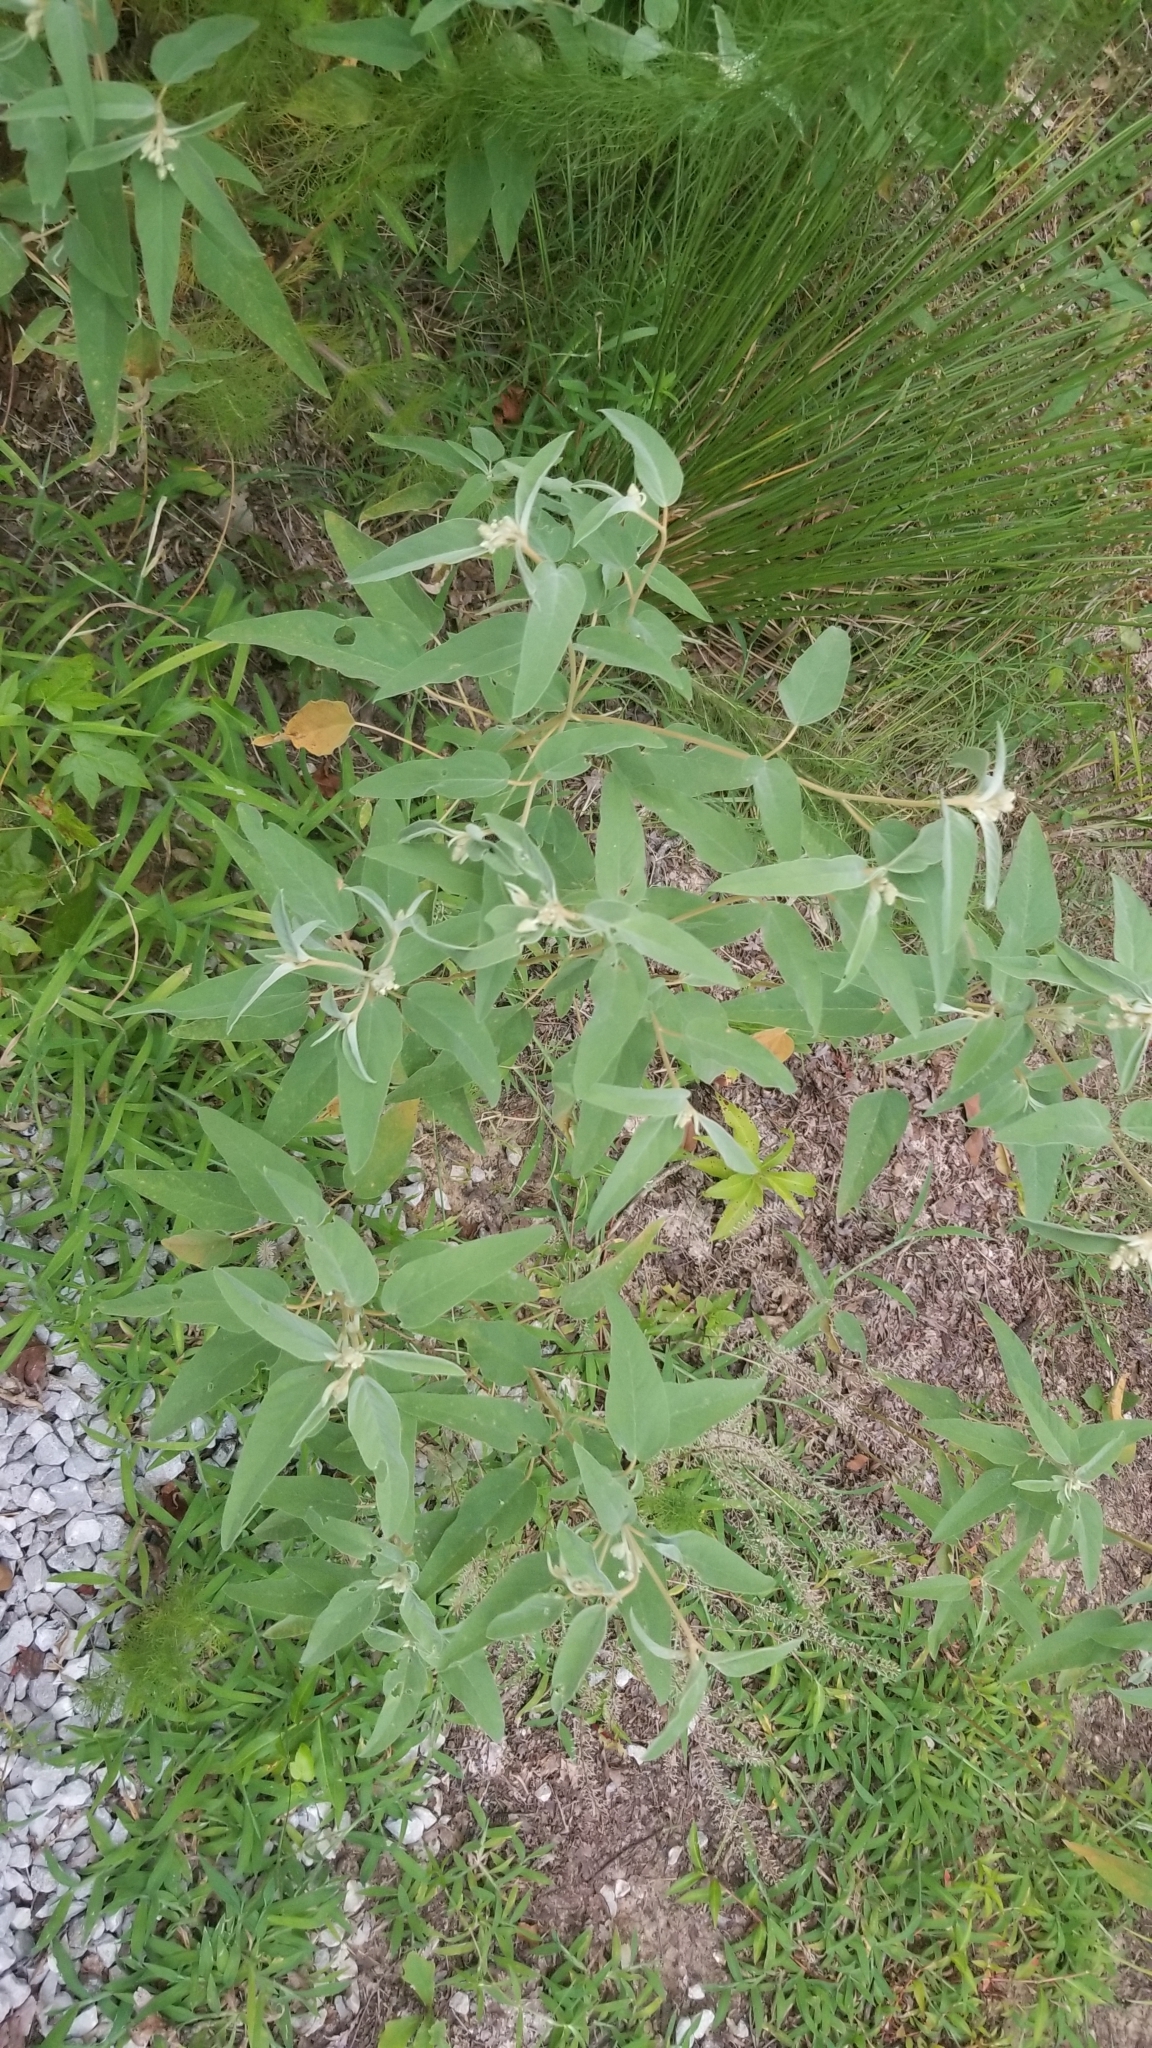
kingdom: Plantae
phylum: Tracheophyta
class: Magnoliopsida
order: Malpighiales
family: Euphorbiaceae
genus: Croton
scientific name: Croton lindheimeri
